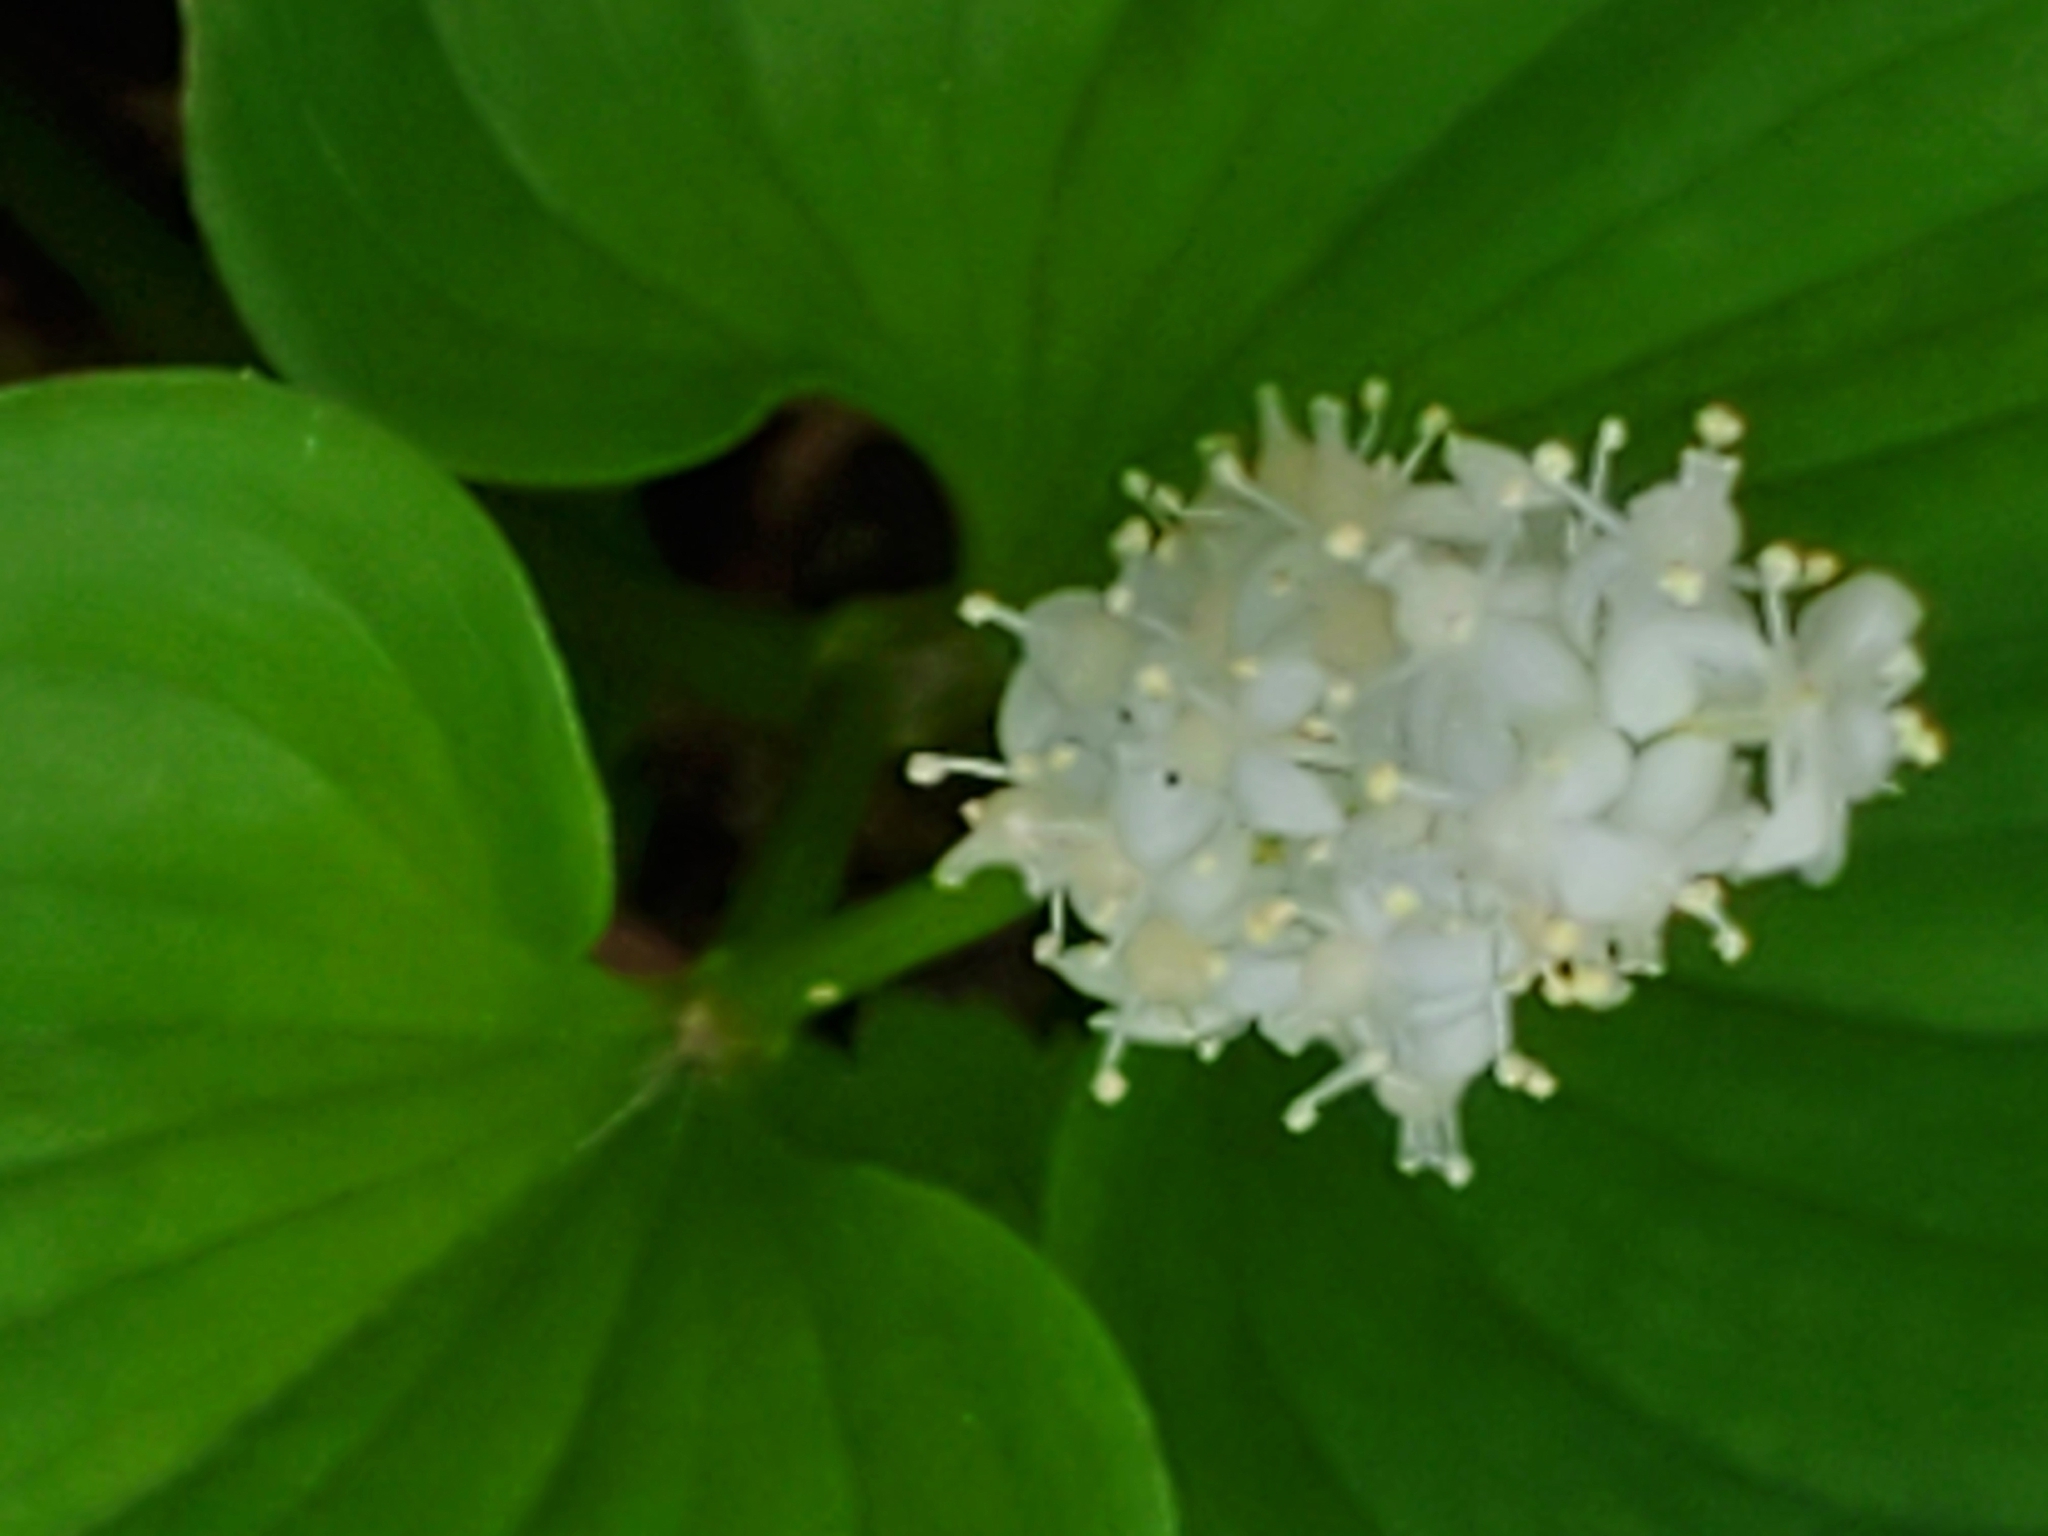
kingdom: Plantae
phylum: Tracheophyta
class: Liliopsida
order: Asparagales
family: Asparagaceae
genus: Maianthemum
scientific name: Maianthemum dilatatum
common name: False lily-of-the-valley
